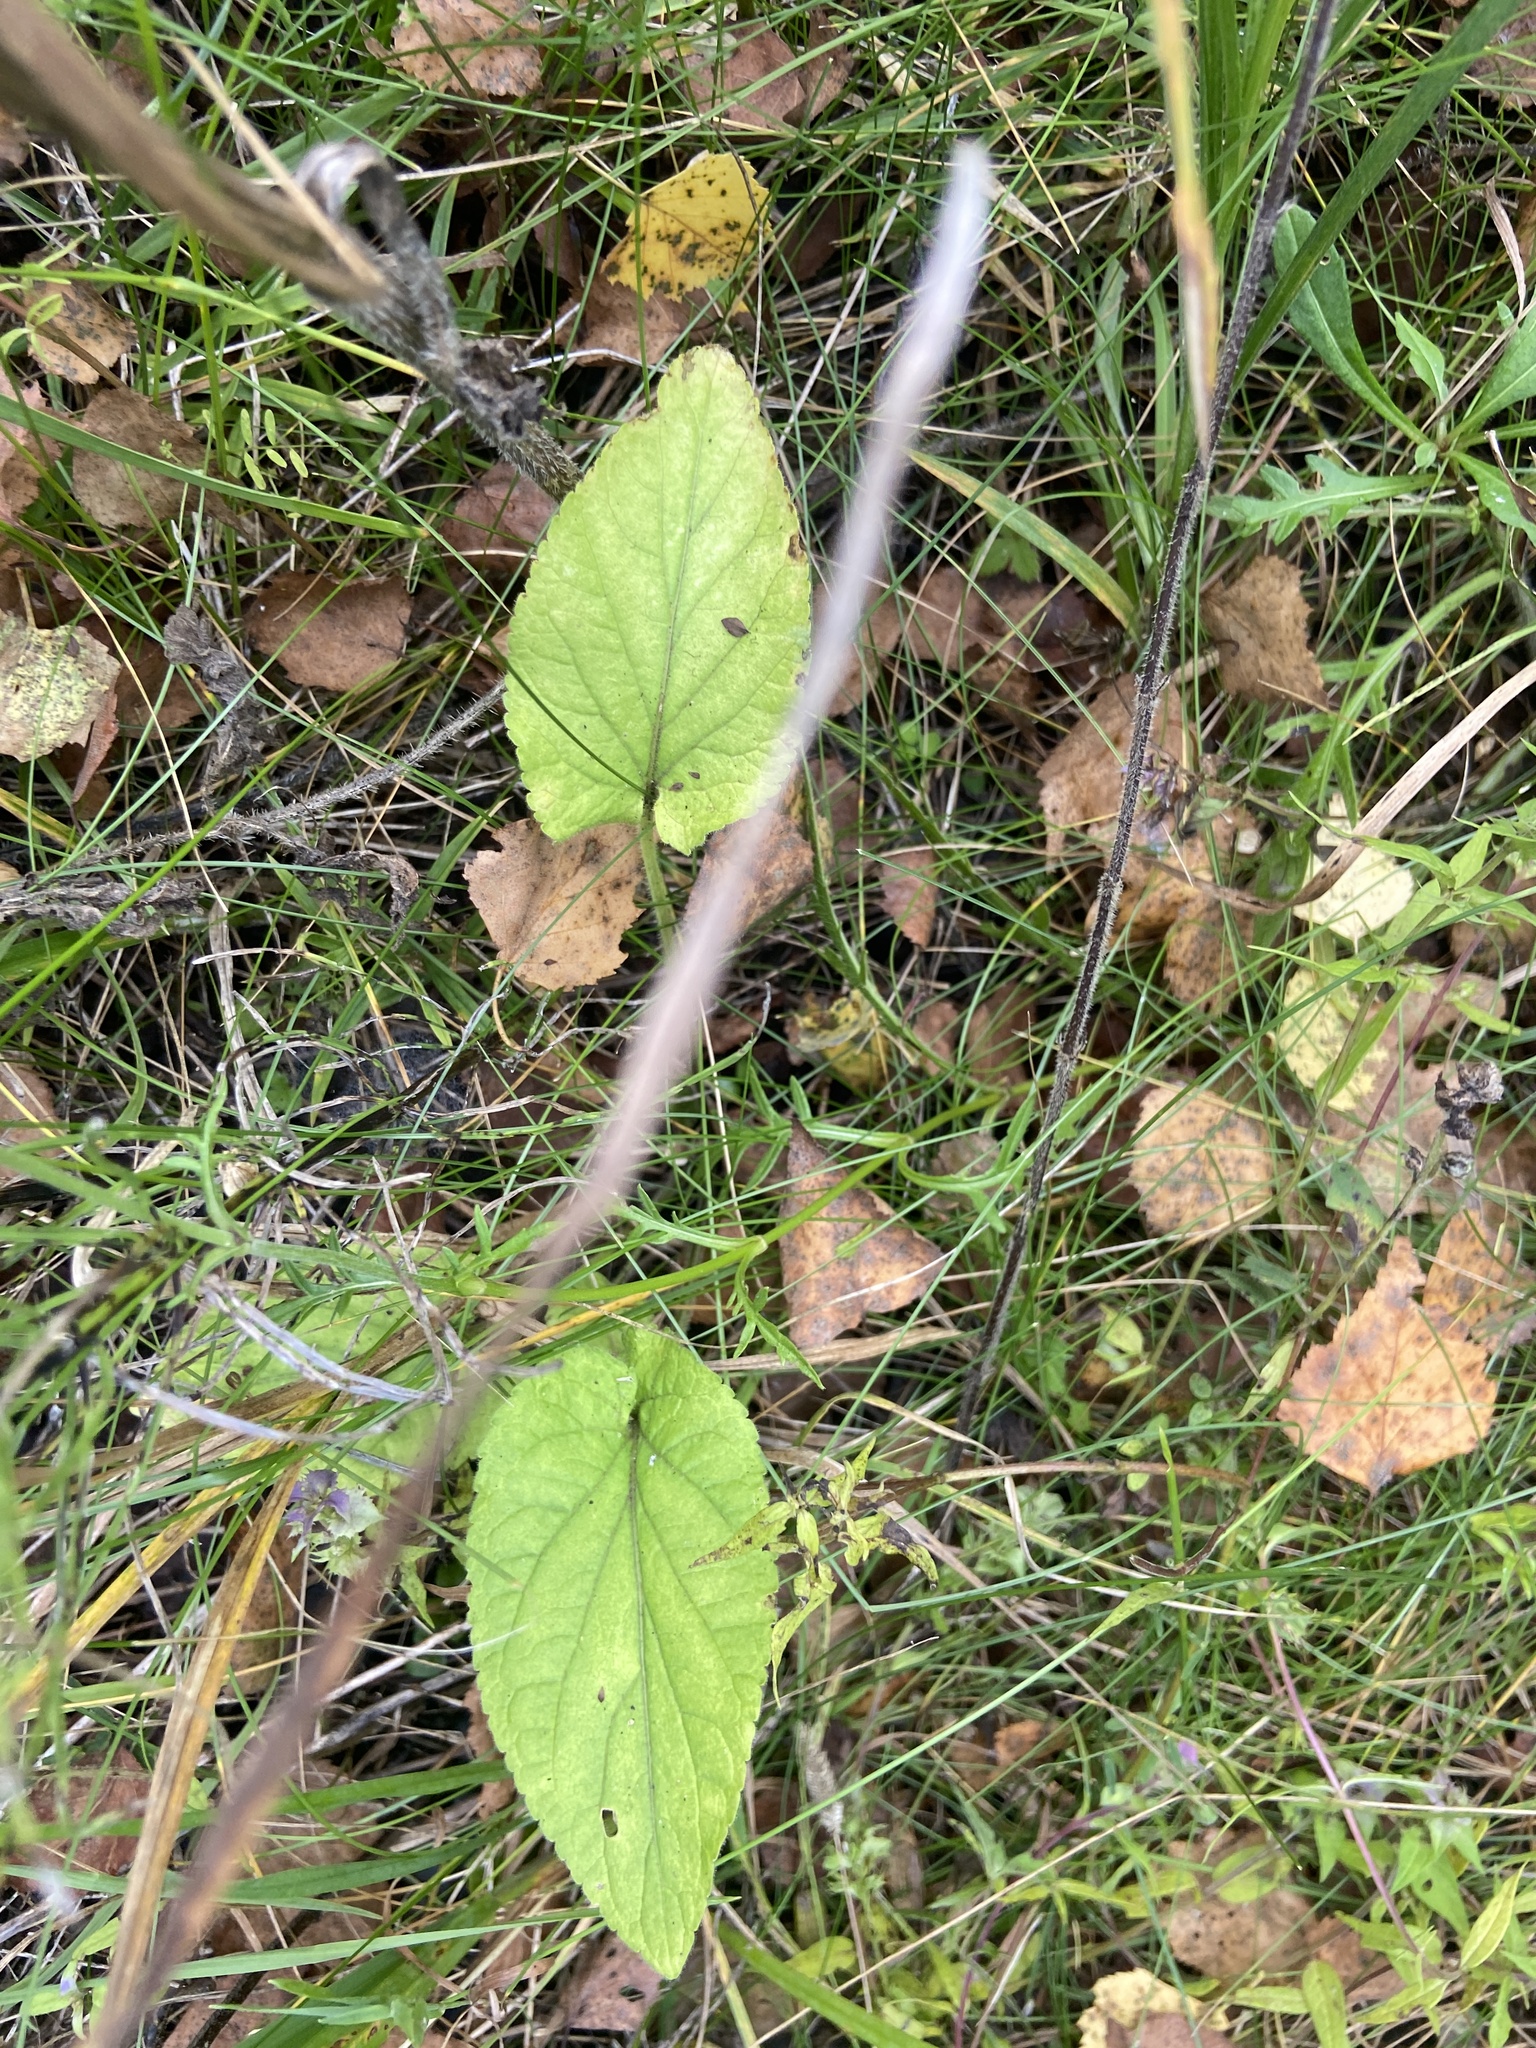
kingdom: Plantae
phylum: Tracheophyta
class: Magnoliopsida
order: Malpighiales
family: Violaceae
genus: Viola
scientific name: Viola hirta
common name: Hairy violet
